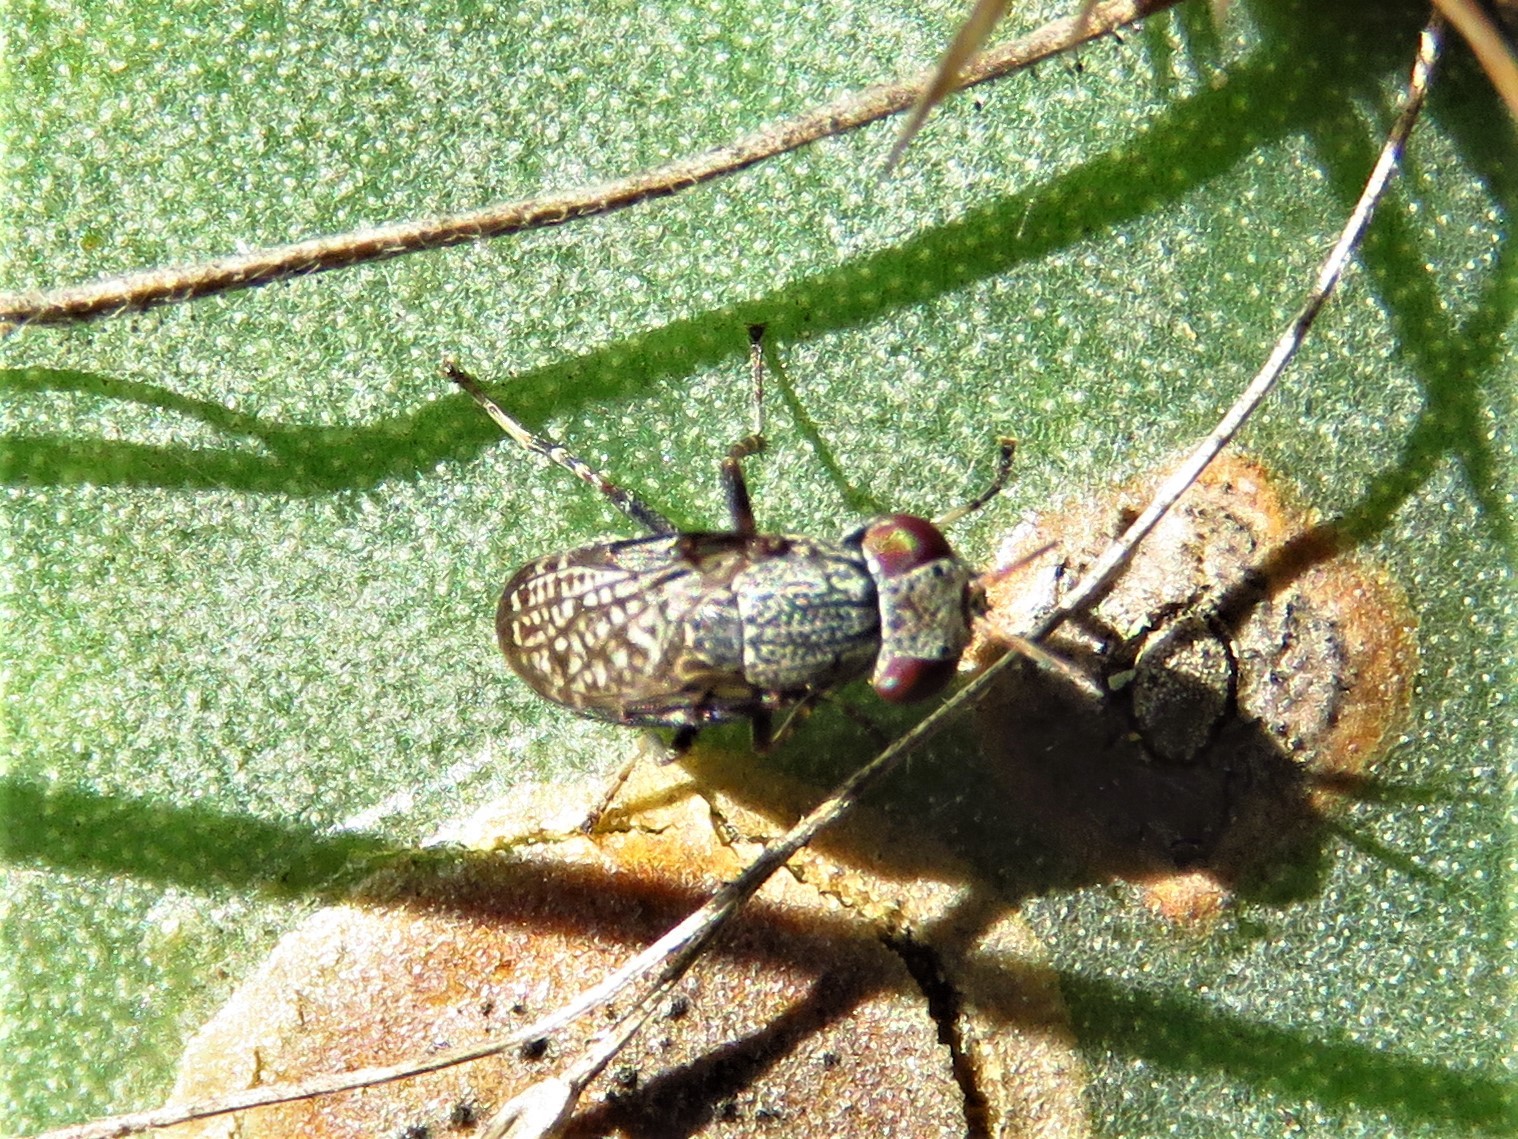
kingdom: Animalia
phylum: Arthropoda
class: Insecta
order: Diptera
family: Ulidiidae
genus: Stictomyia
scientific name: Stictomyia longicornis
